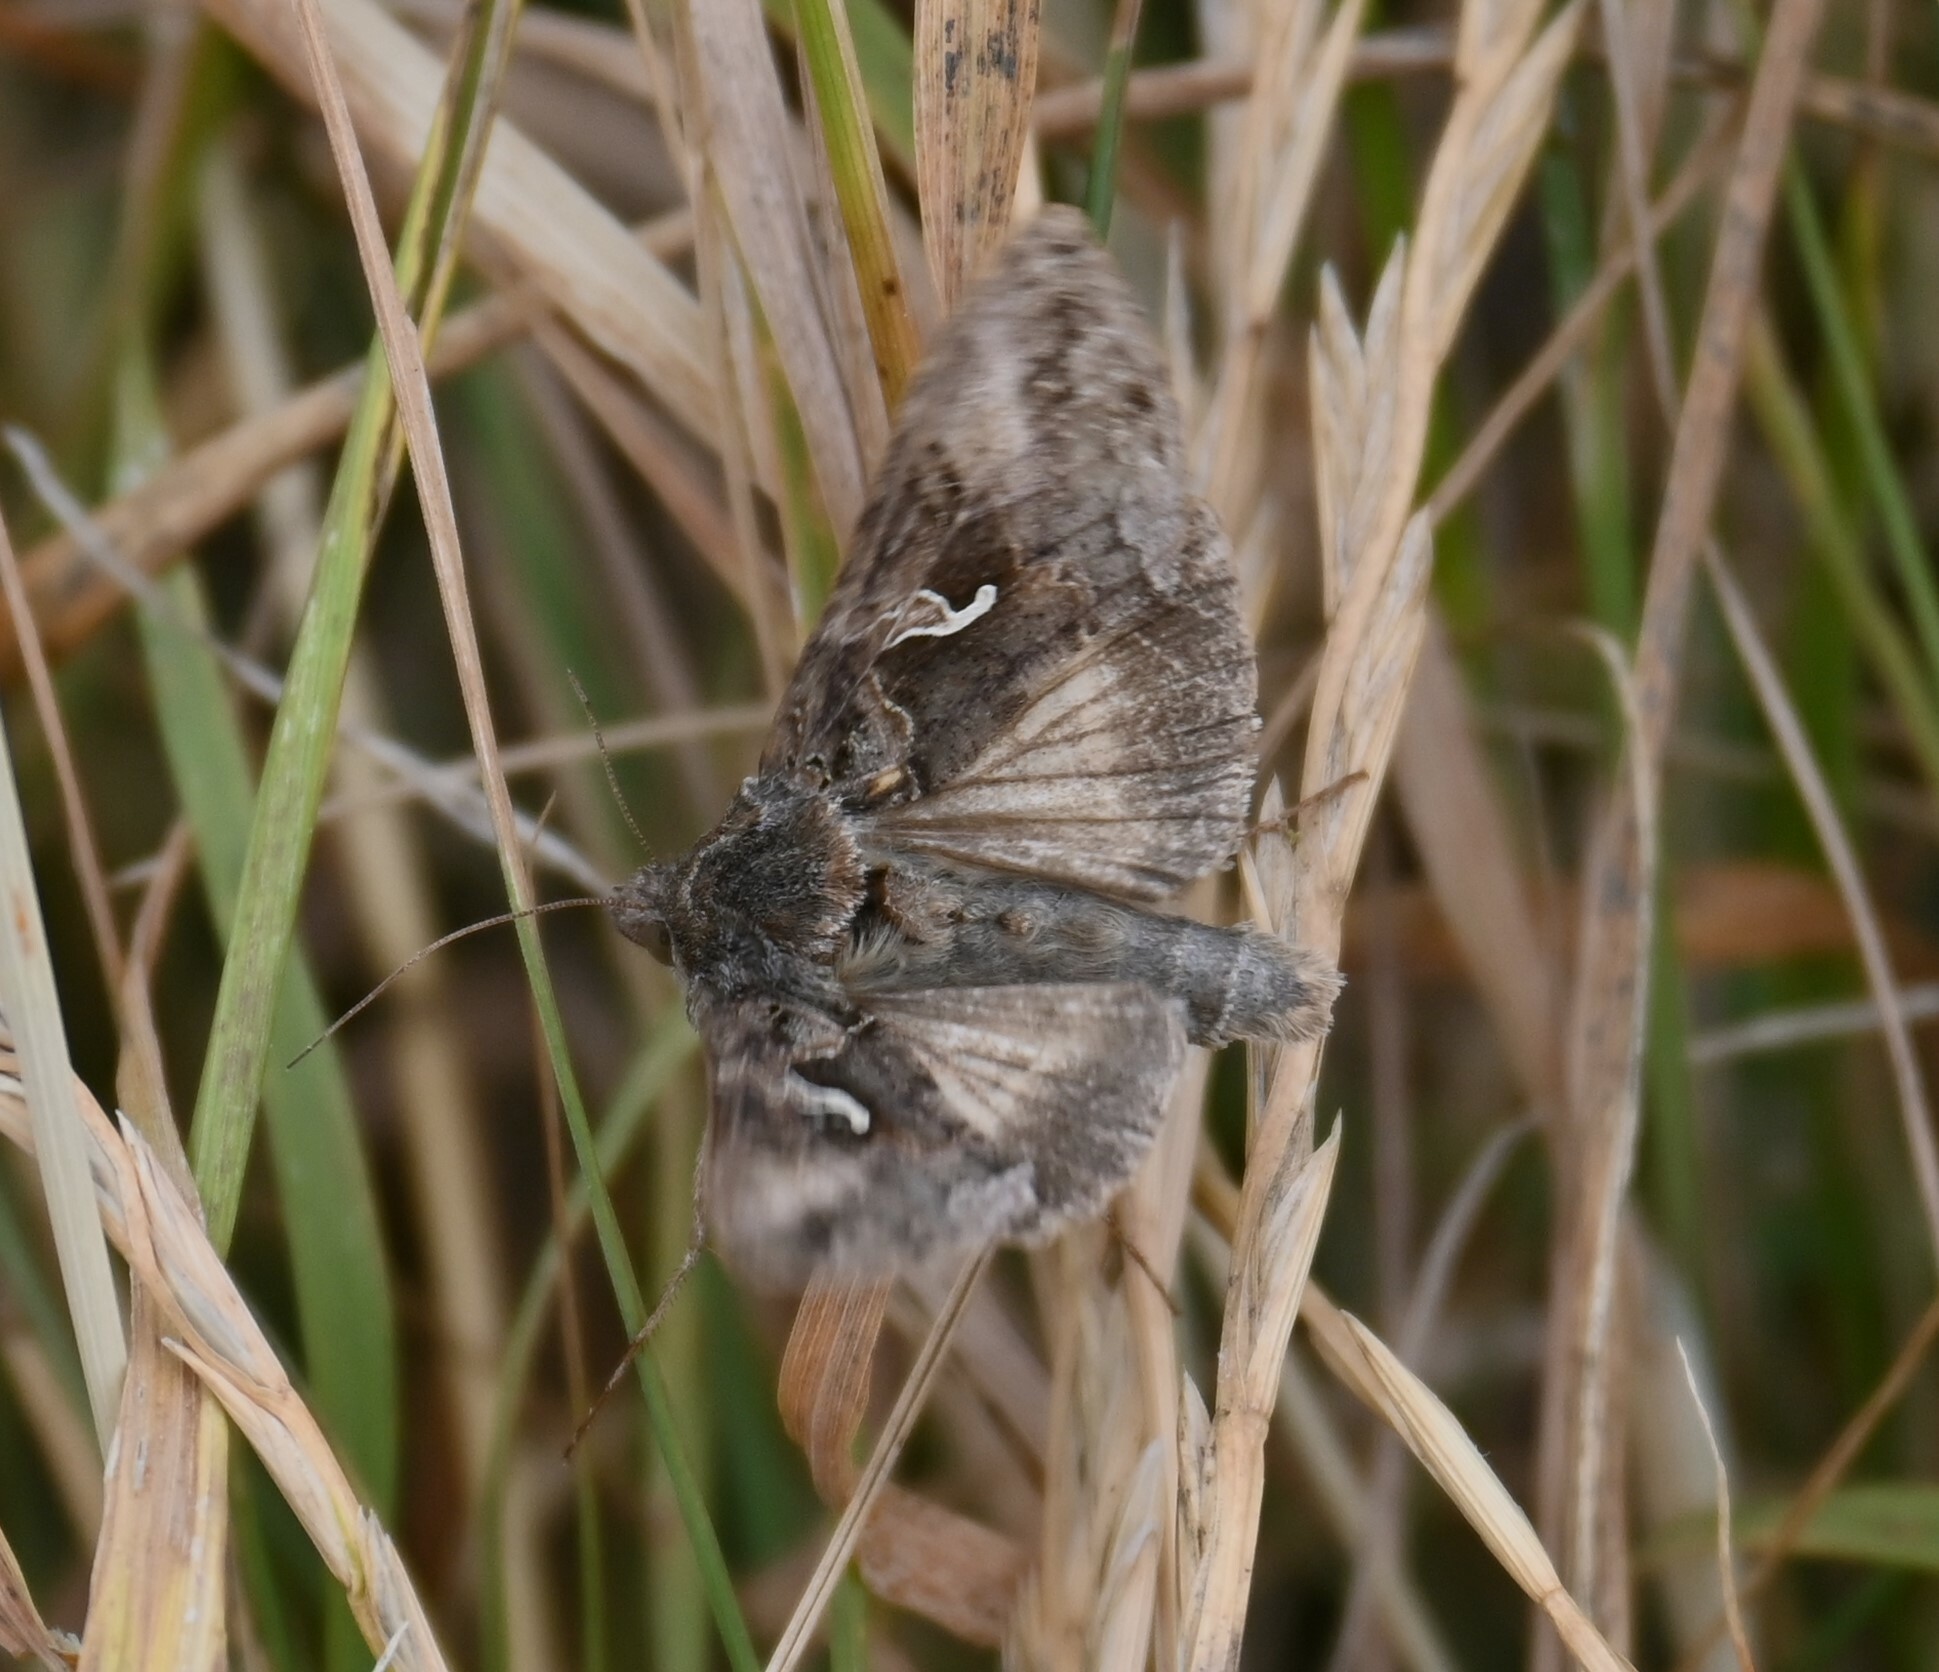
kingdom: Animalia
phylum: Arthropoda
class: Insecta
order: Lepidoptera
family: Noctuidae
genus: Autographa
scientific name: Autographa gamma
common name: Silver y
